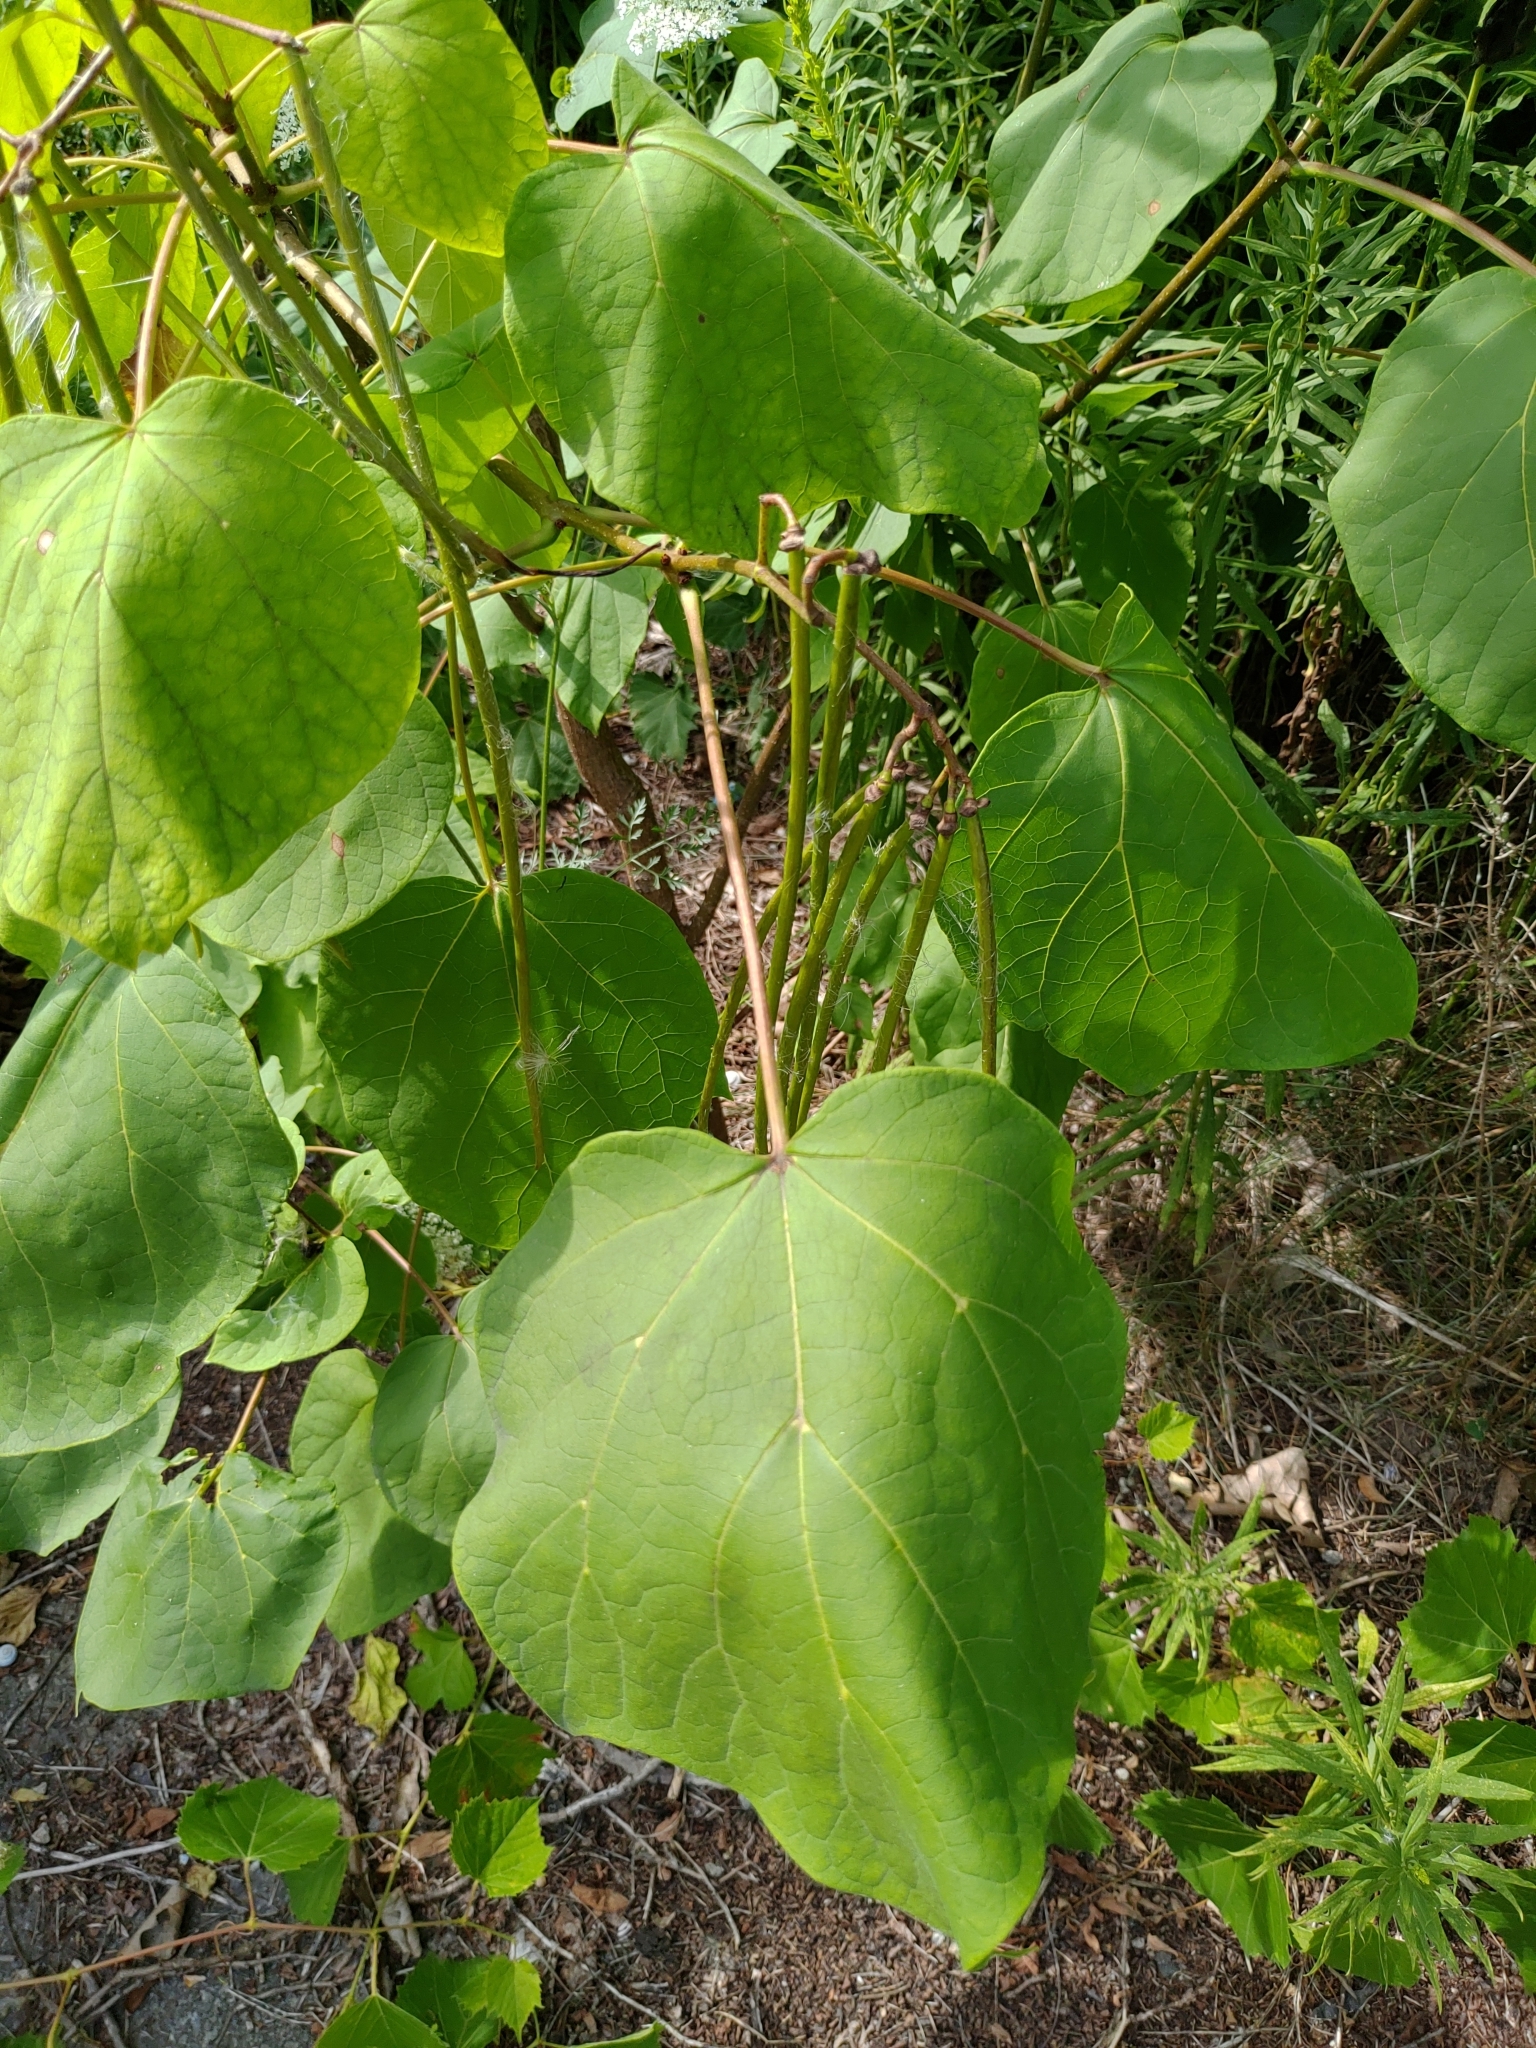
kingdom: Plantae
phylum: Tracheophyta
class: Magnoliopsida
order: Lamiales
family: Bignoniaceae
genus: Catalpa
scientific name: Catalpa speciosa
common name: Northern catalpa
